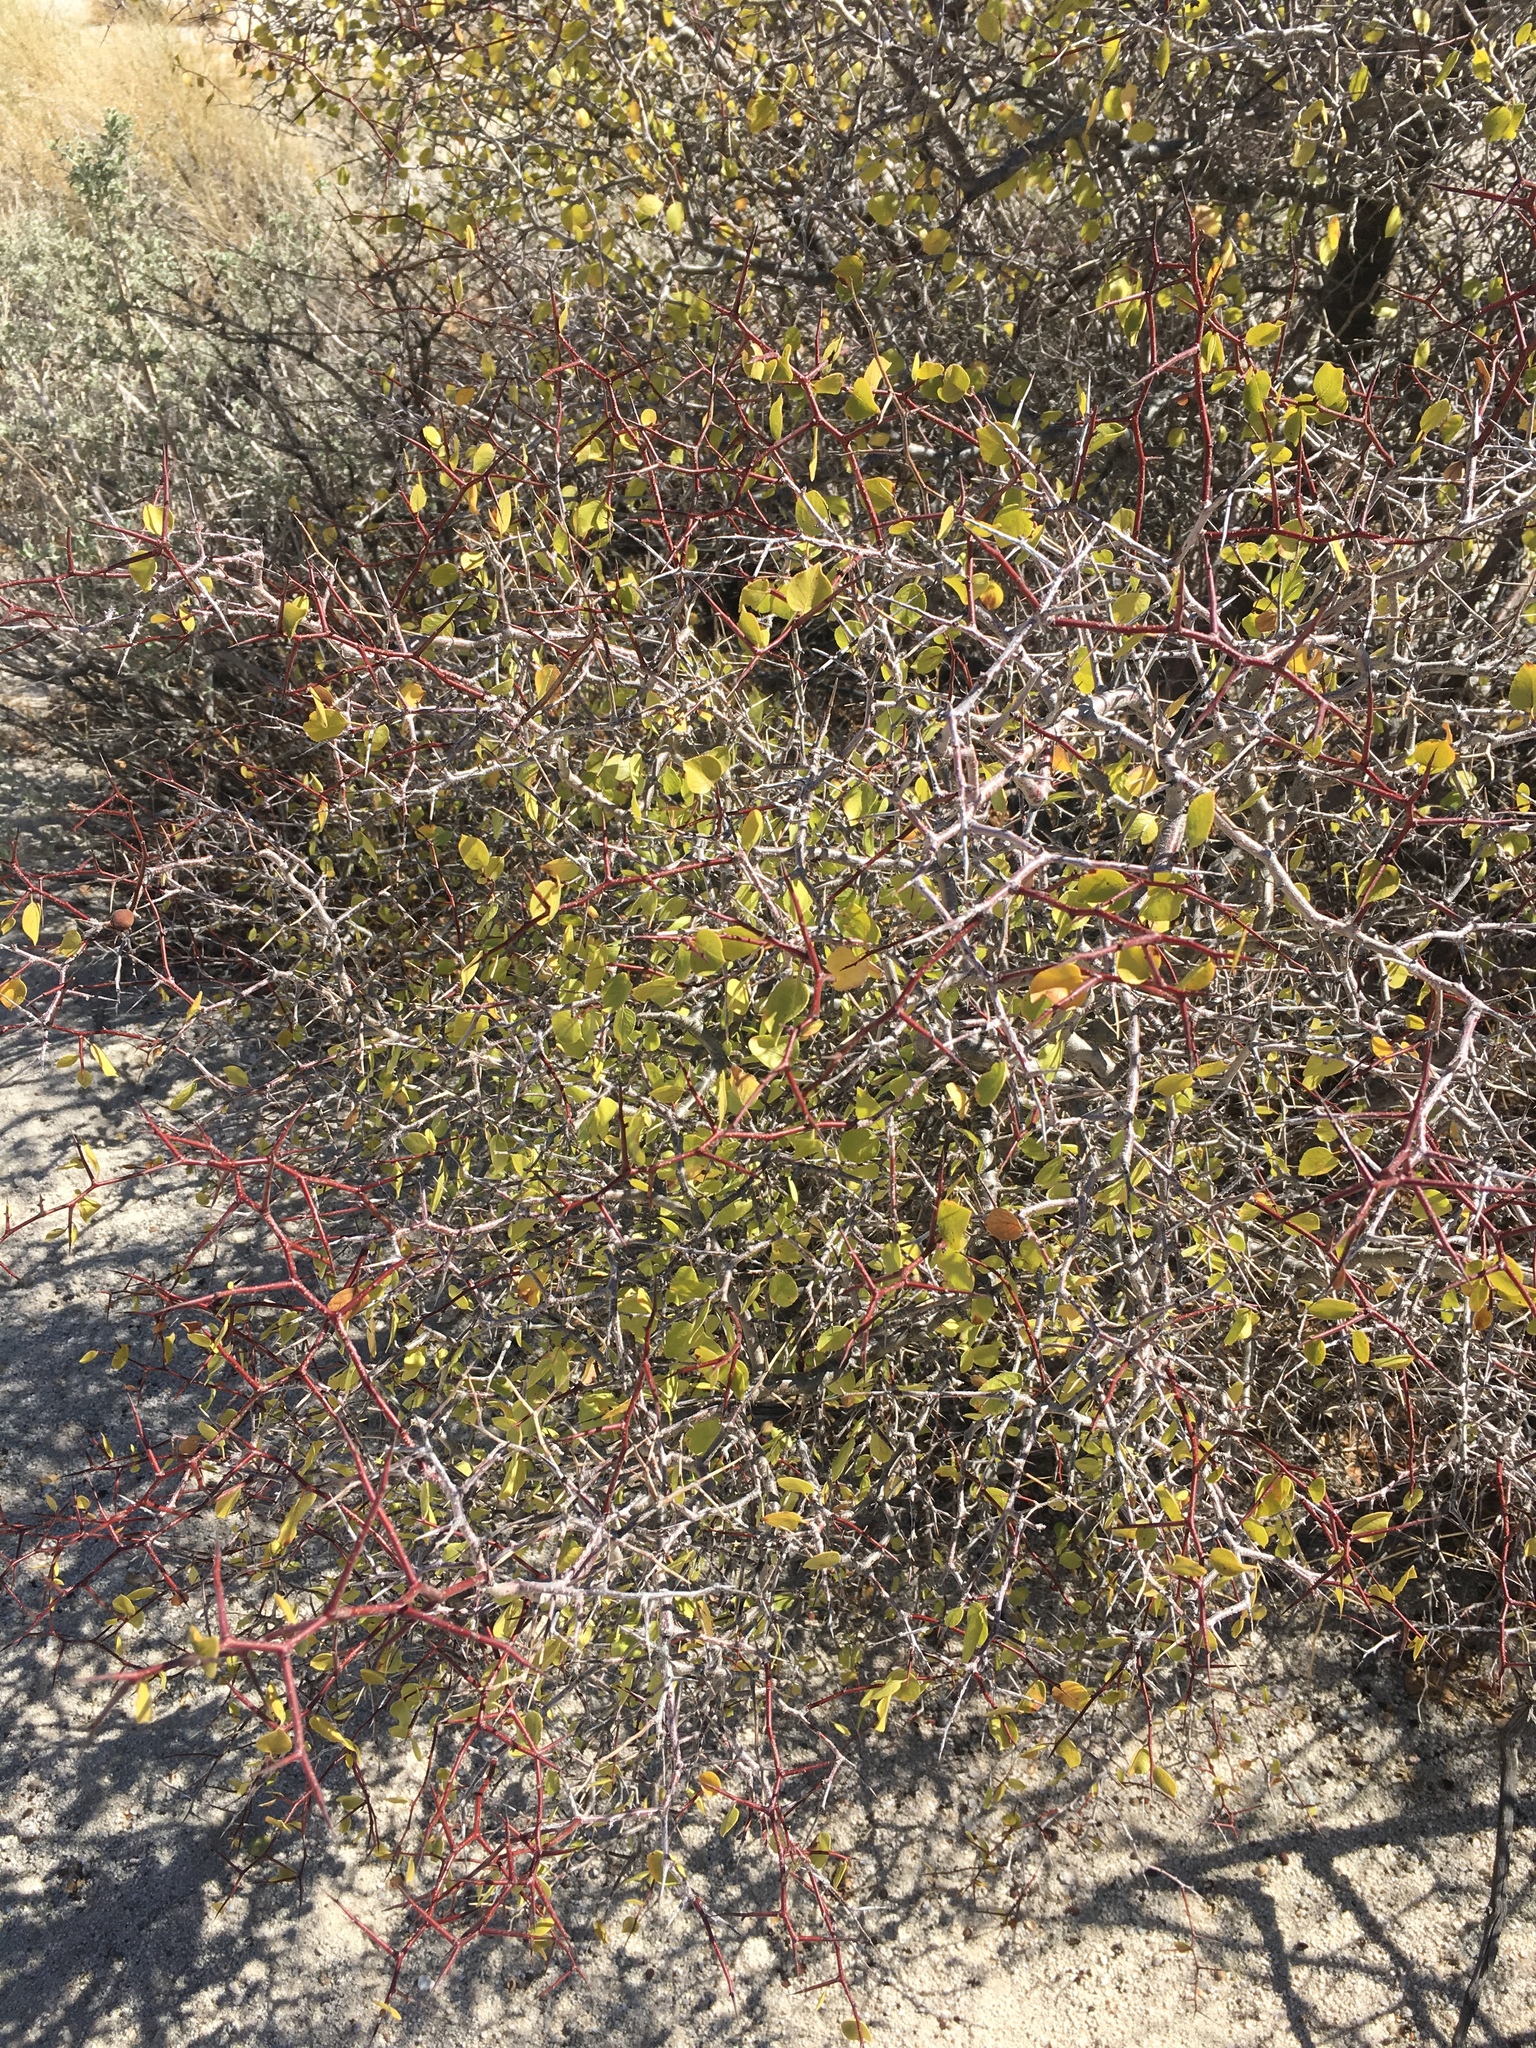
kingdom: Plantae
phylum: Tracheophyta
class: Magnoliopsida
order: Rosales
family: Rosaceae
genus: Prunus
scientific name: Prunus fremontii
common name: Desert apricot
